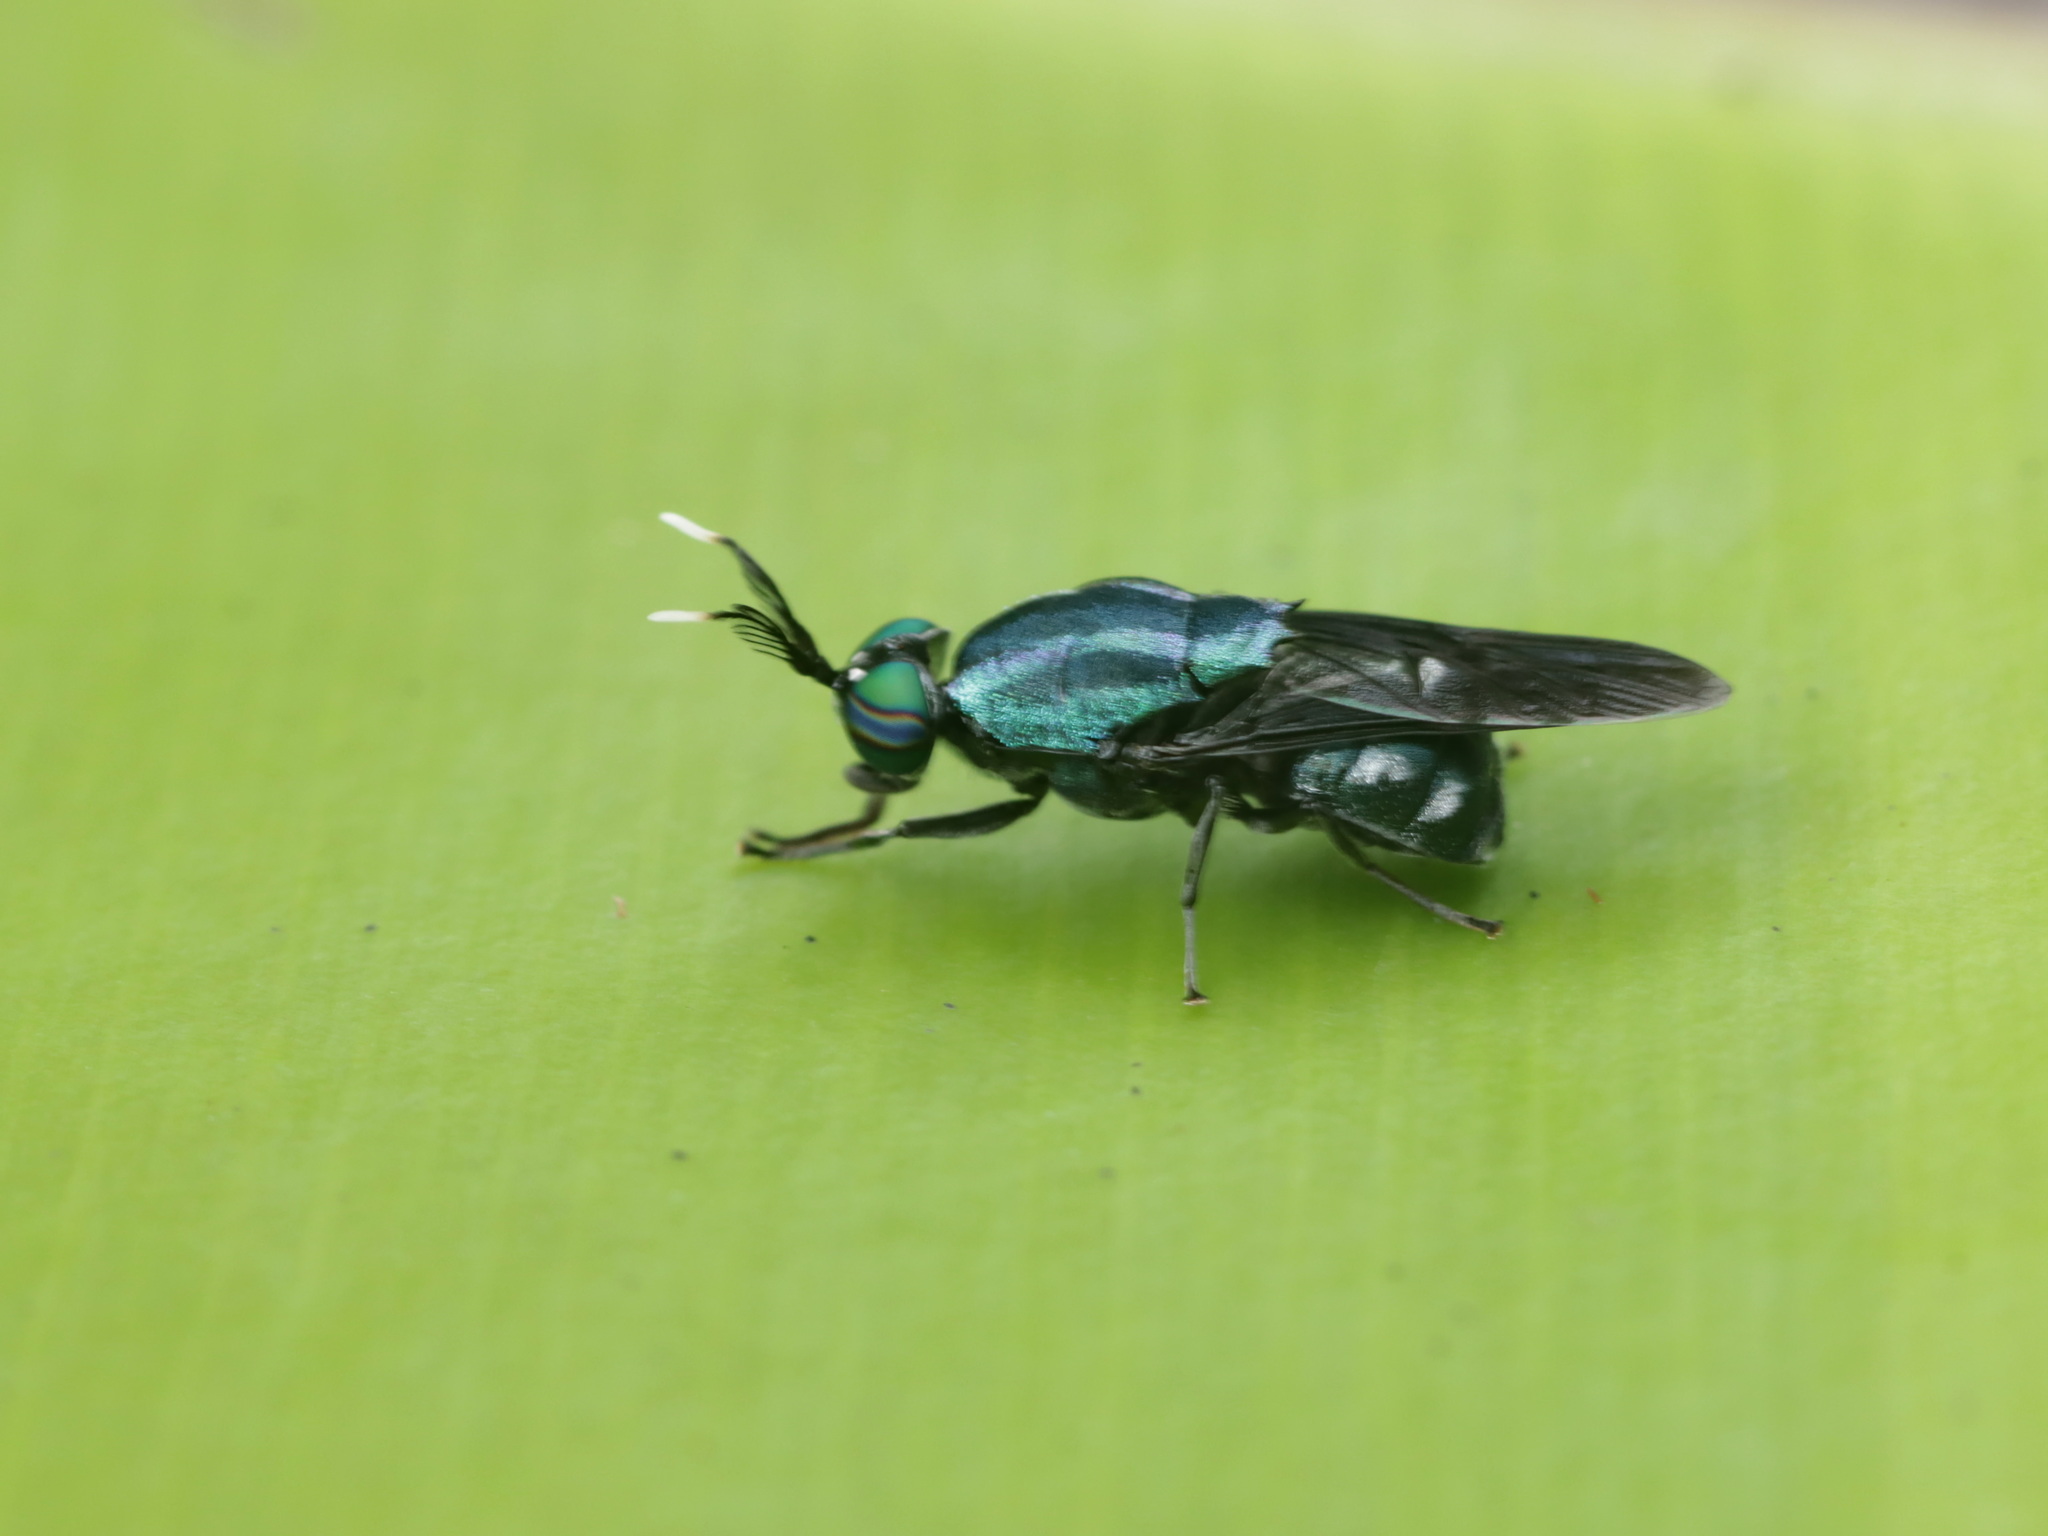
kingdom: Animalia
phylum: Arthropoda
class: Insecta
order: Diptera
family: Stratiomyidae
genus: Ptilocera
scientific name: Ptilocera continua
